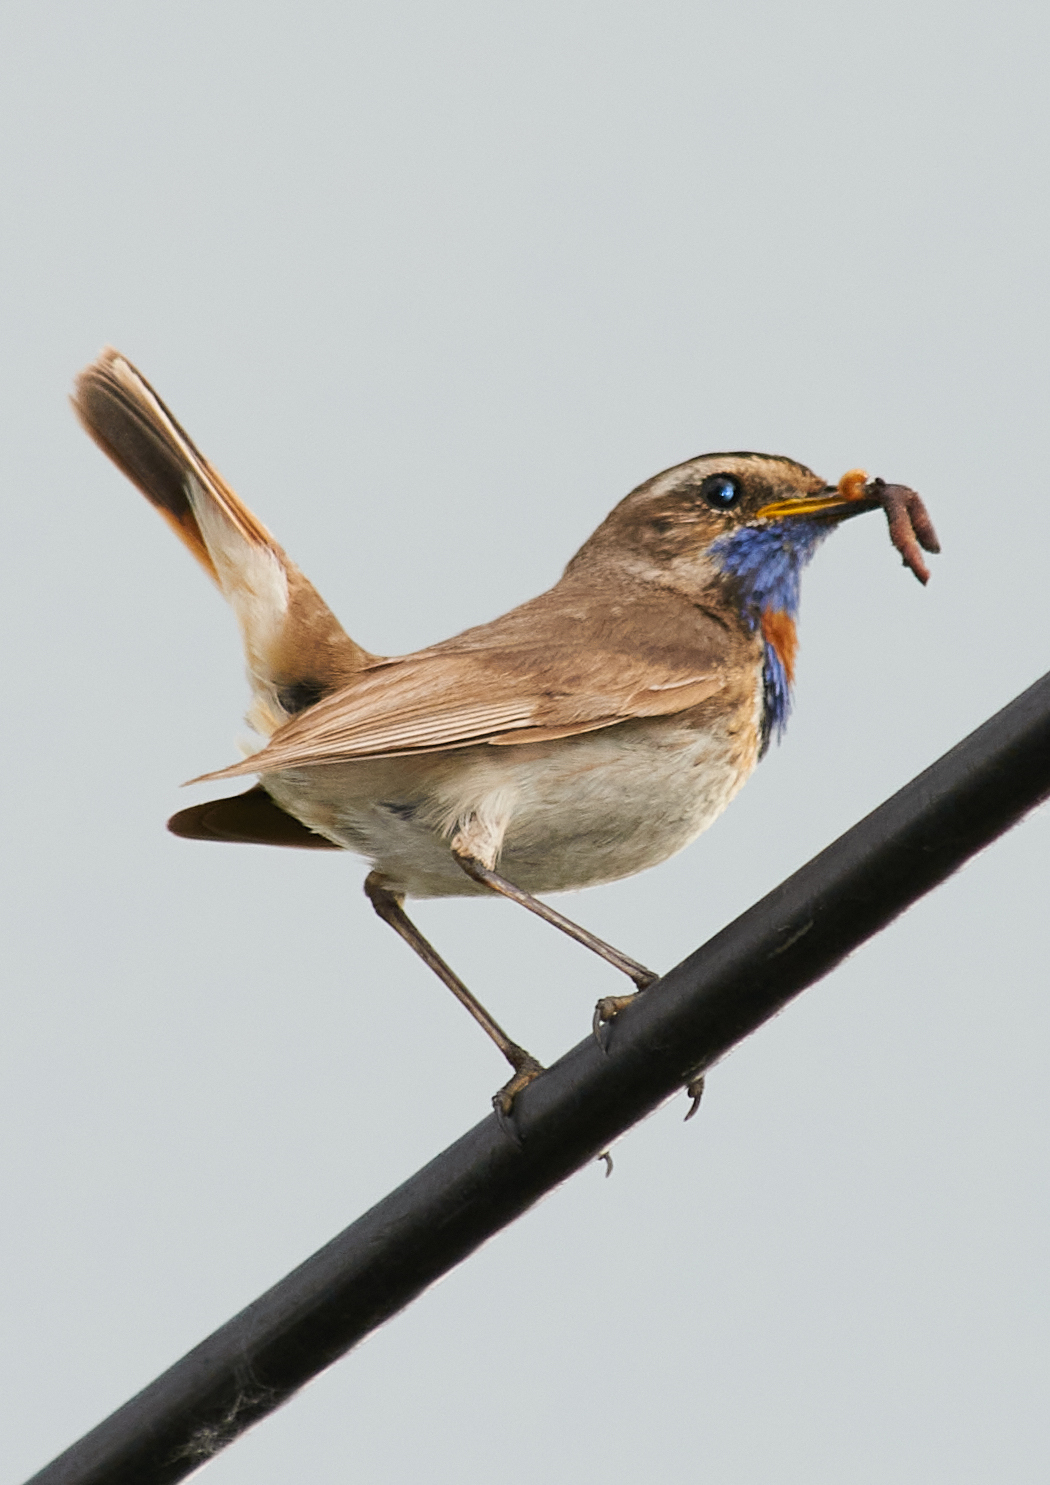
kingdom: Animalia
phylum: Chordata
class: Aves
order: Passeriformes
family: Muscicapidae
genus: Luscinia
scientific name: Luscinia svecica
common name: Bluethroat
